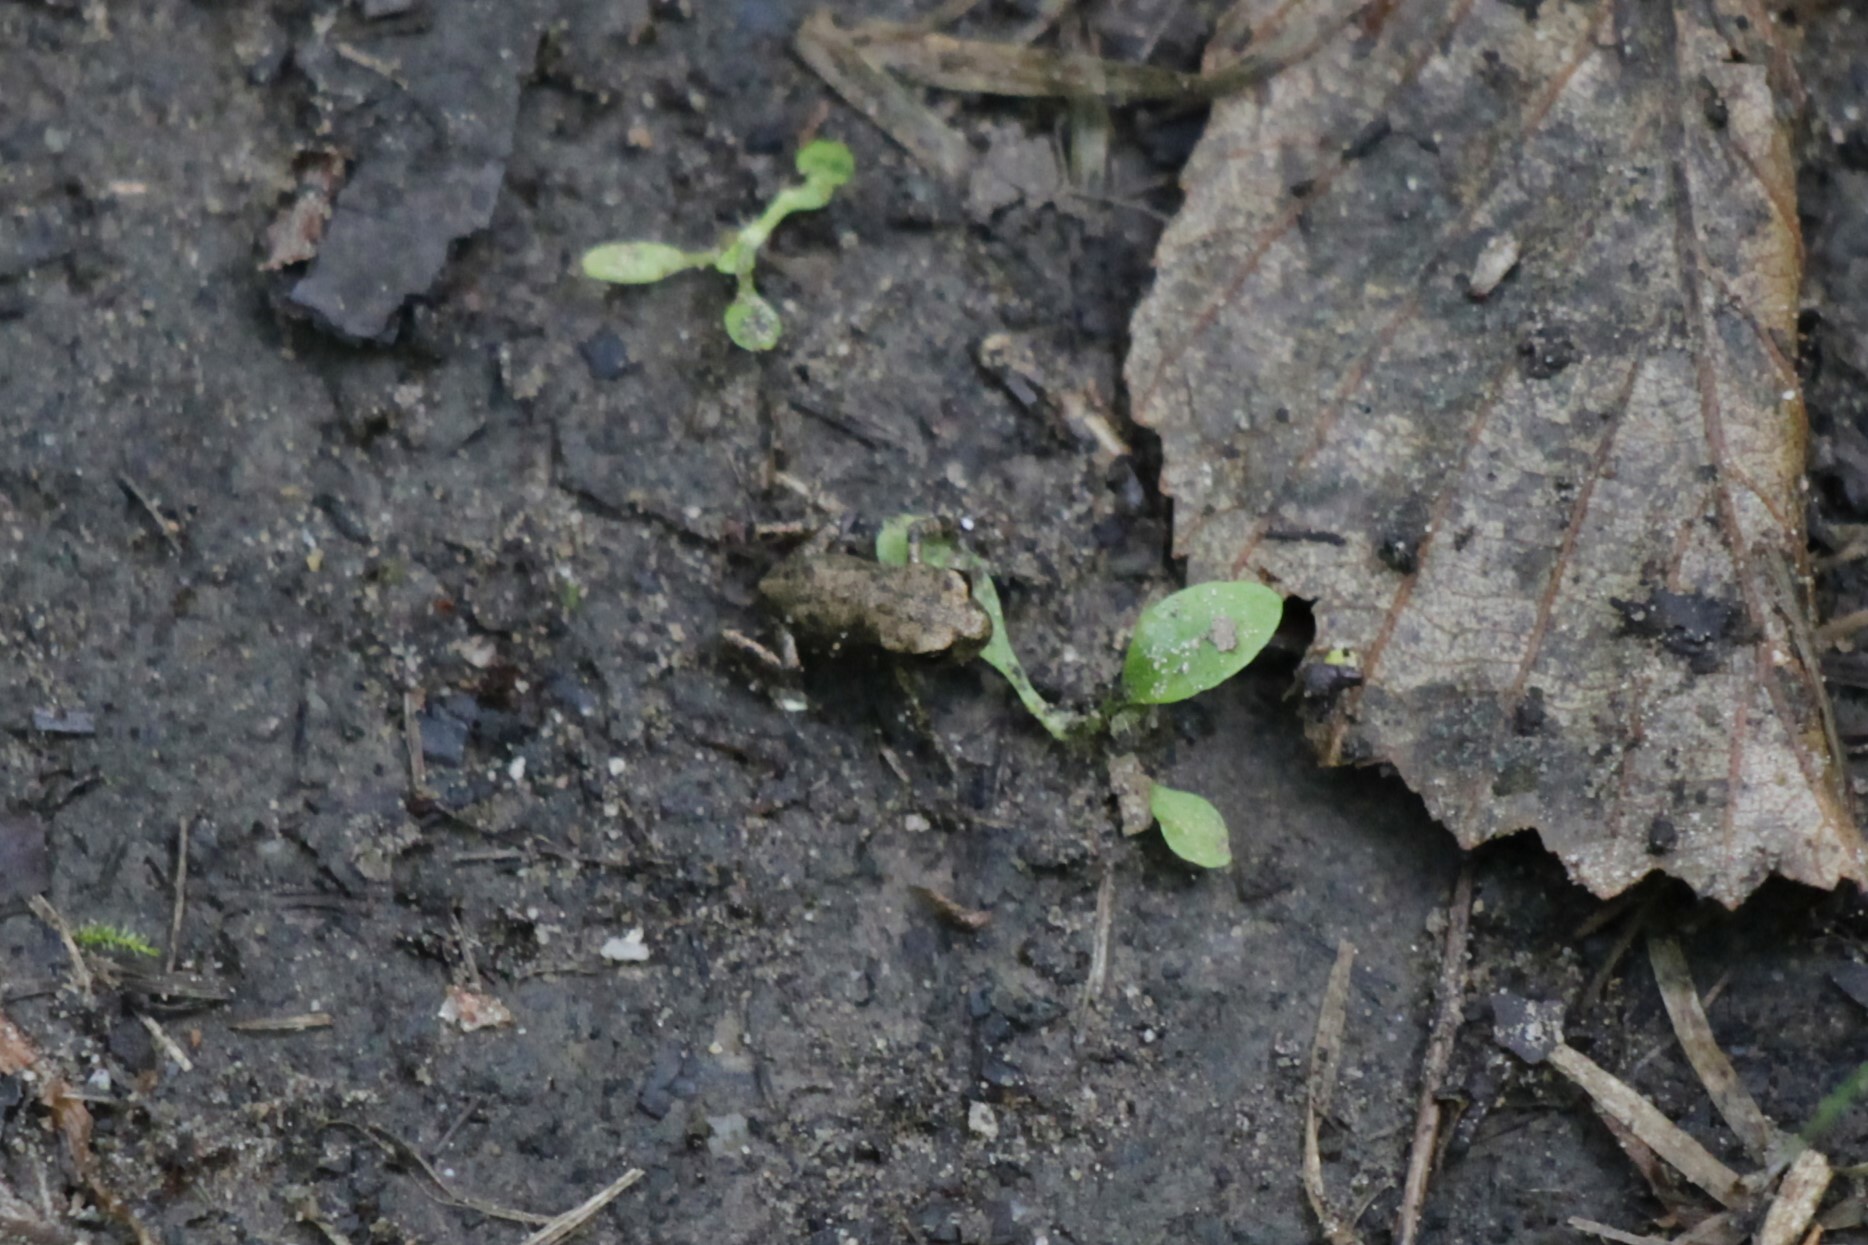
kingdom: Animalia
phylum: Chordata
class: Amphibia
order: Anura
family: Bufonidae
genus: Bufo
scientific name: Bufo bufo
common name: Common toad
